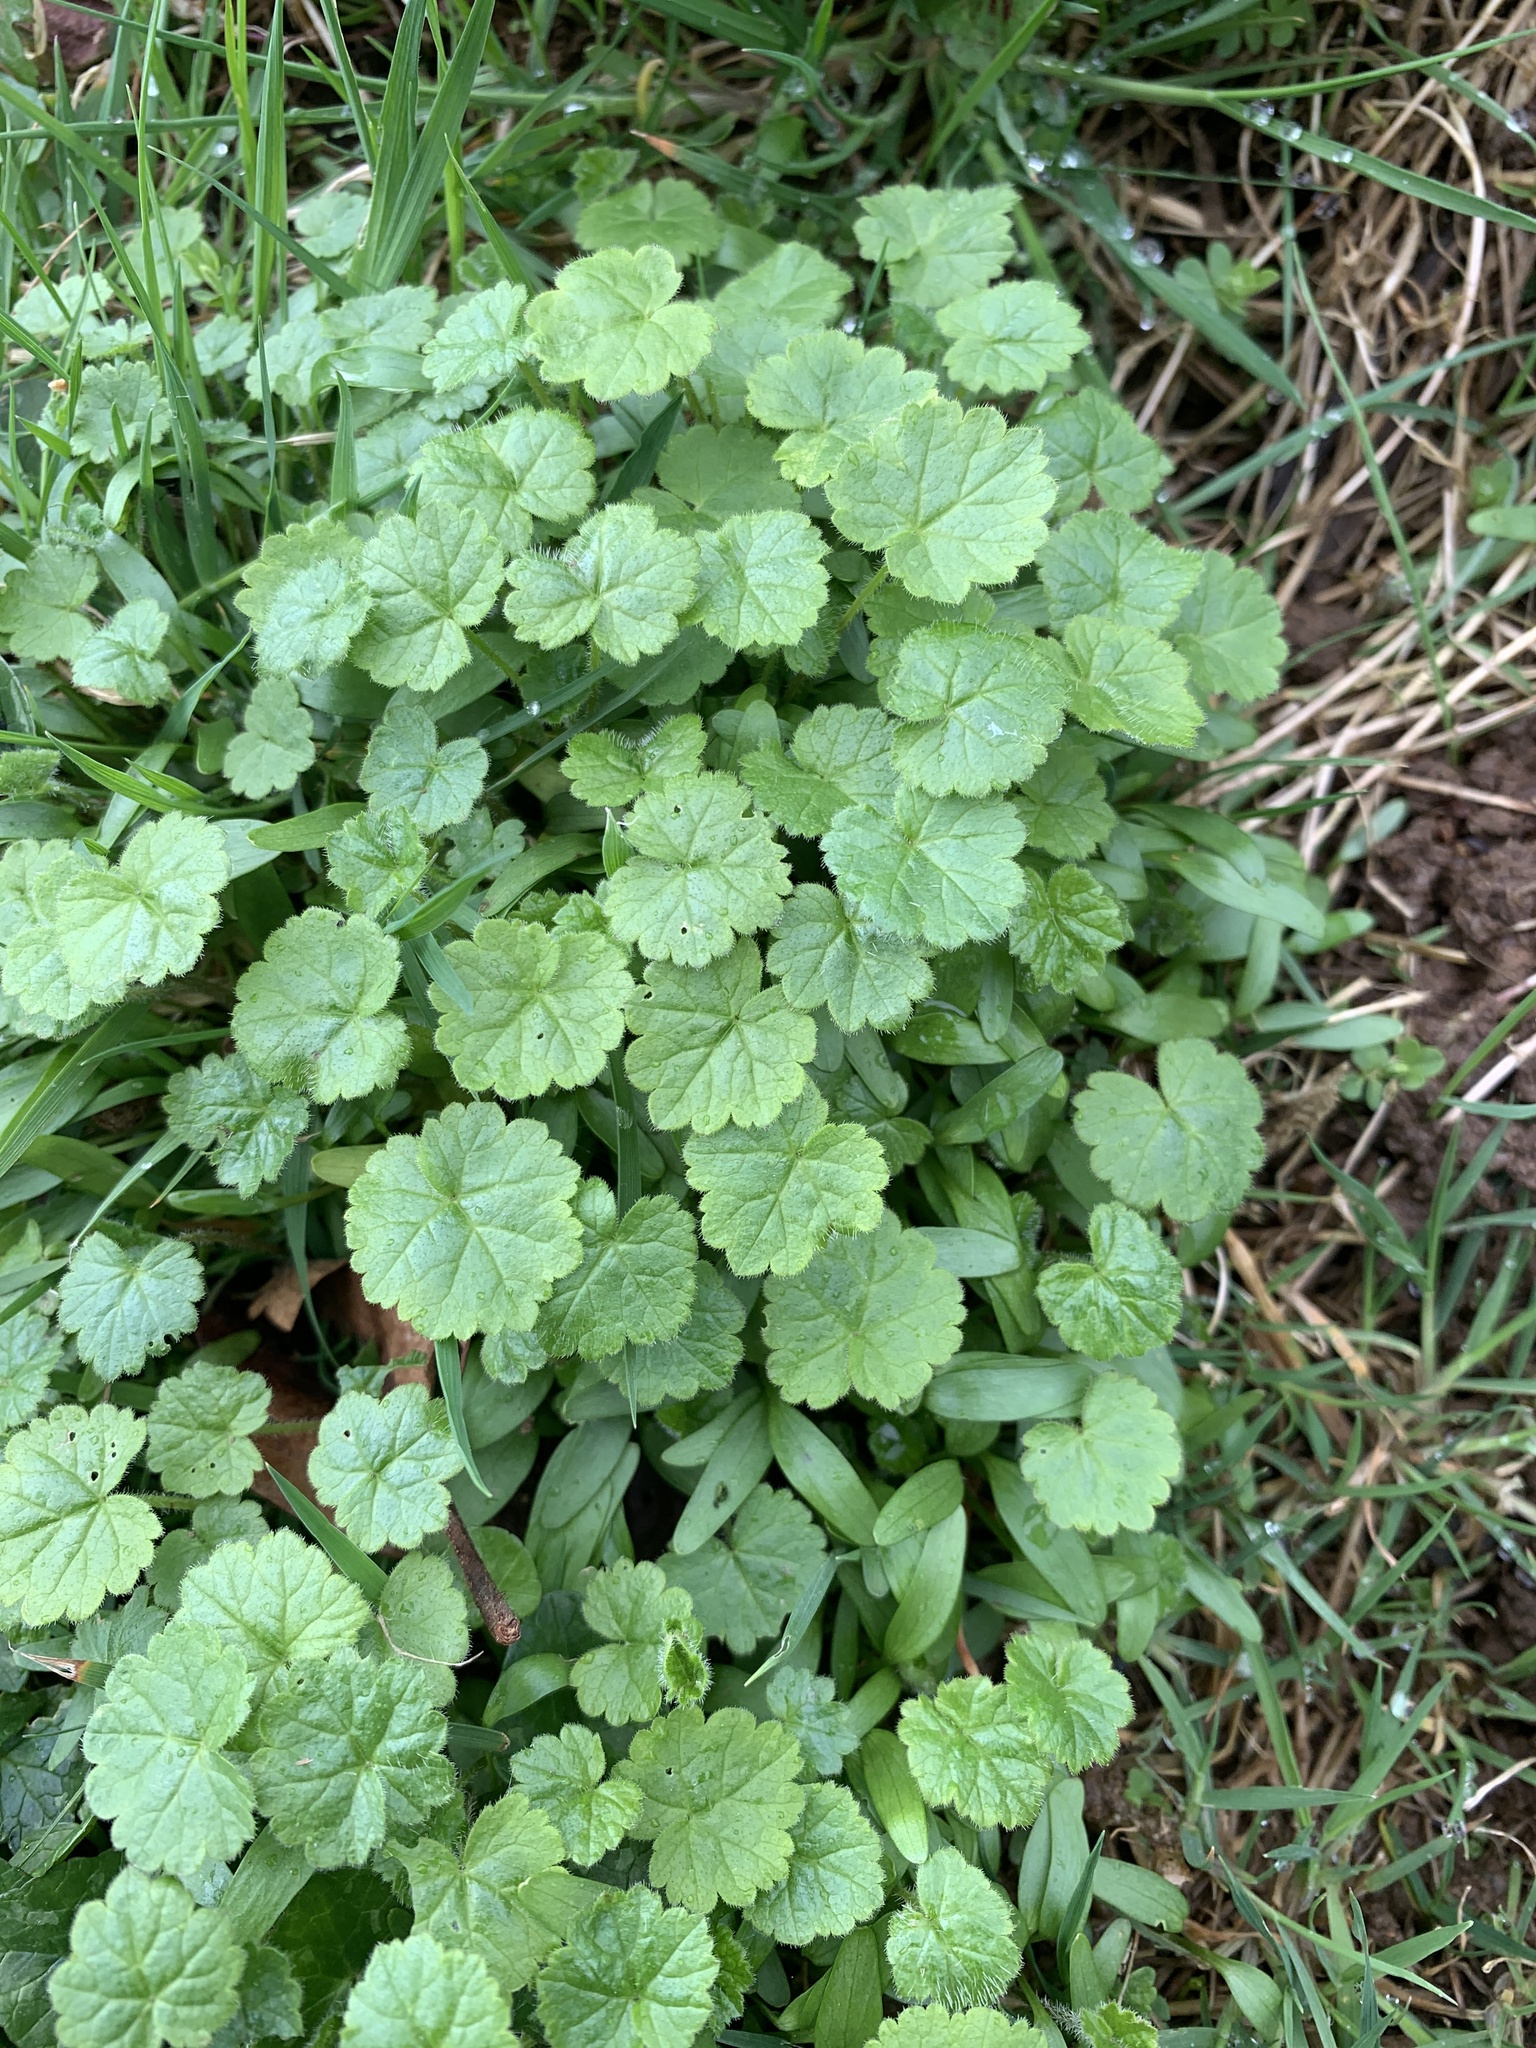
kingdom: Plantae
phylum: Tracheophyta
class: Magnoliopsida
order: Lamiales
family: Lamiaceae
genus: Glechoma
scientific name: Glechoma hederacea
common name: Ground ivy
